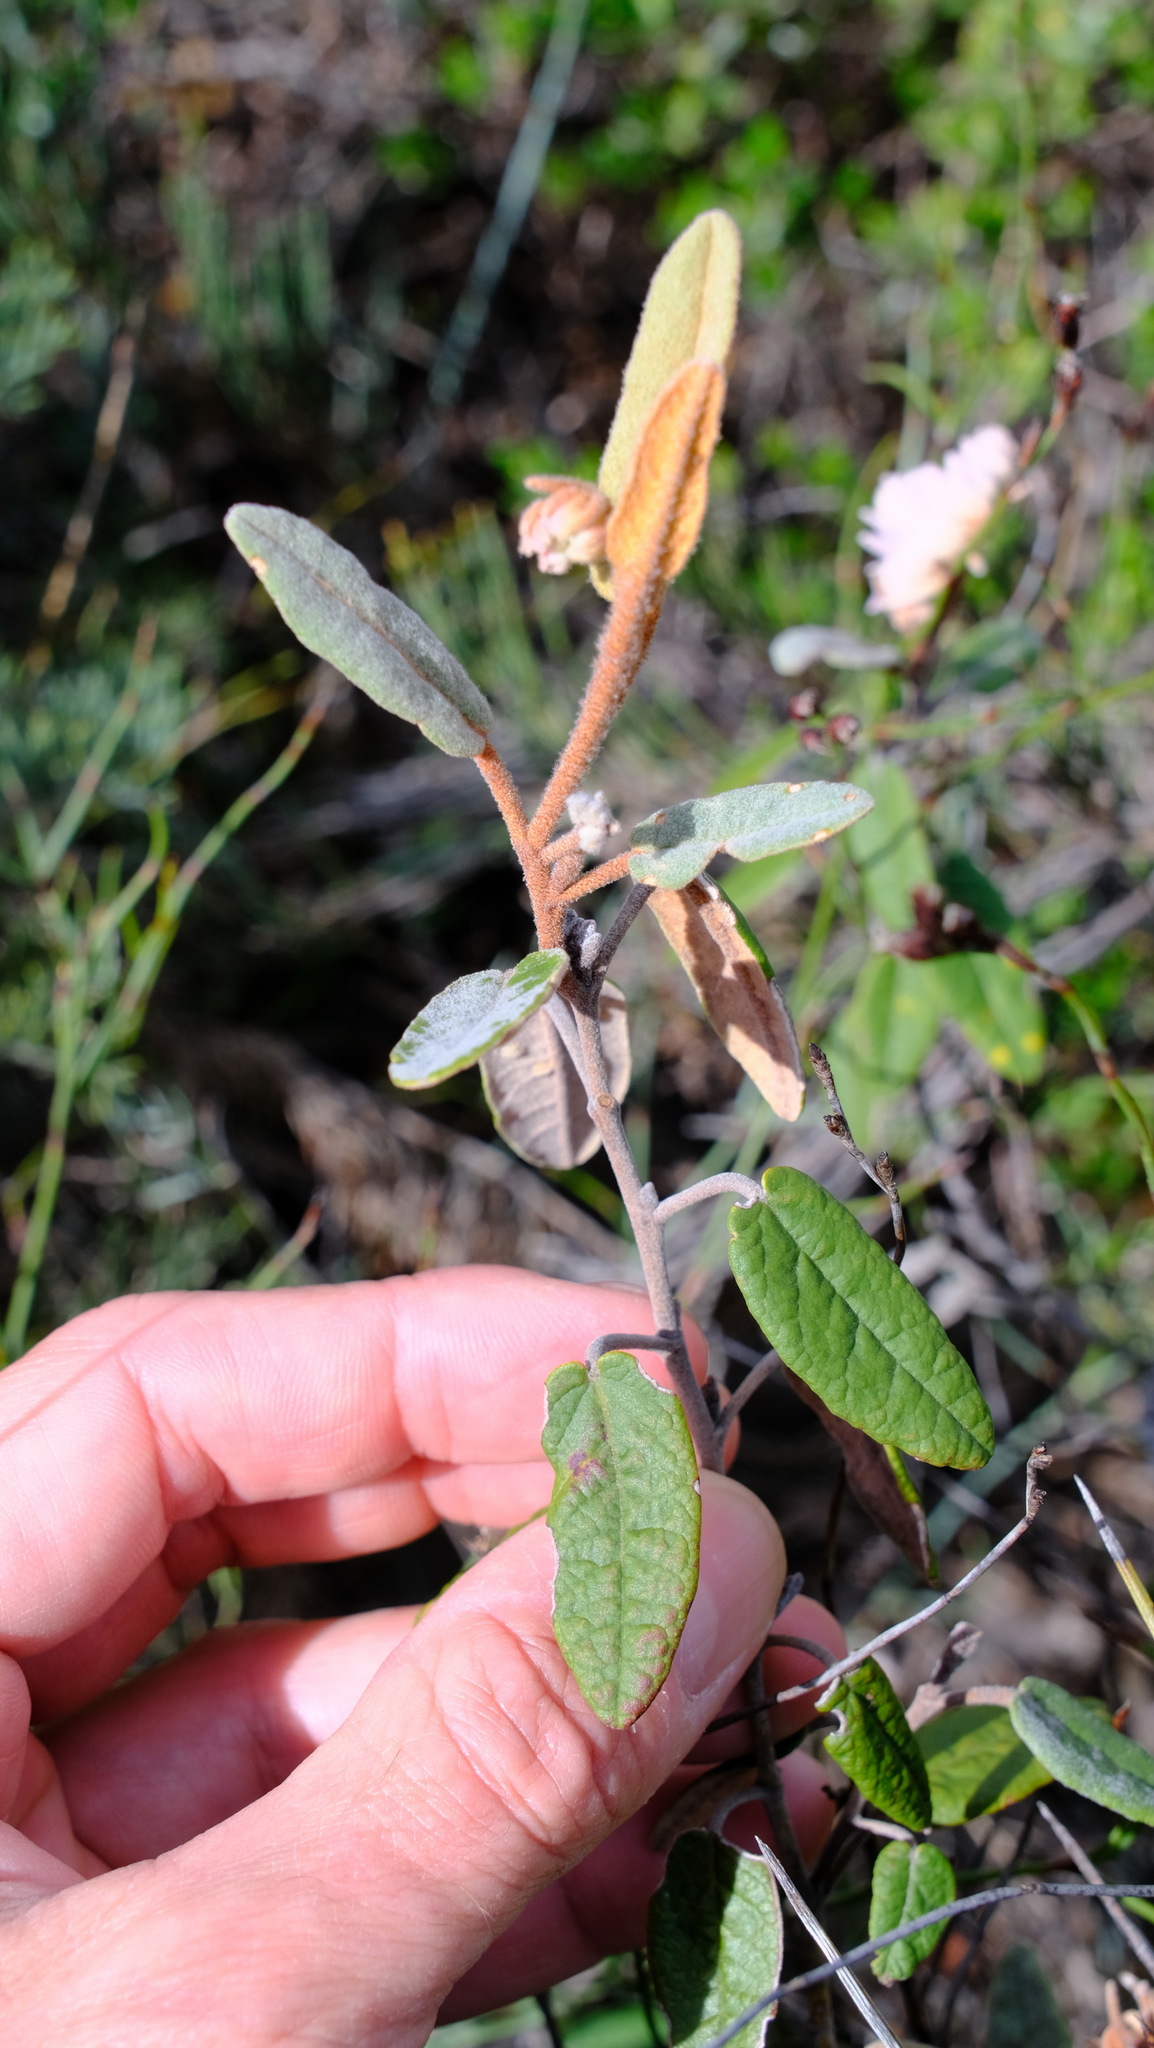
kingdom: Plantae
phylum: Tracheophyta
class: Magnoliopsida
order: Malvales
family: Malvaceae
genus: Lasiopetalum
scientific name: Lasiopetalum drummondii
